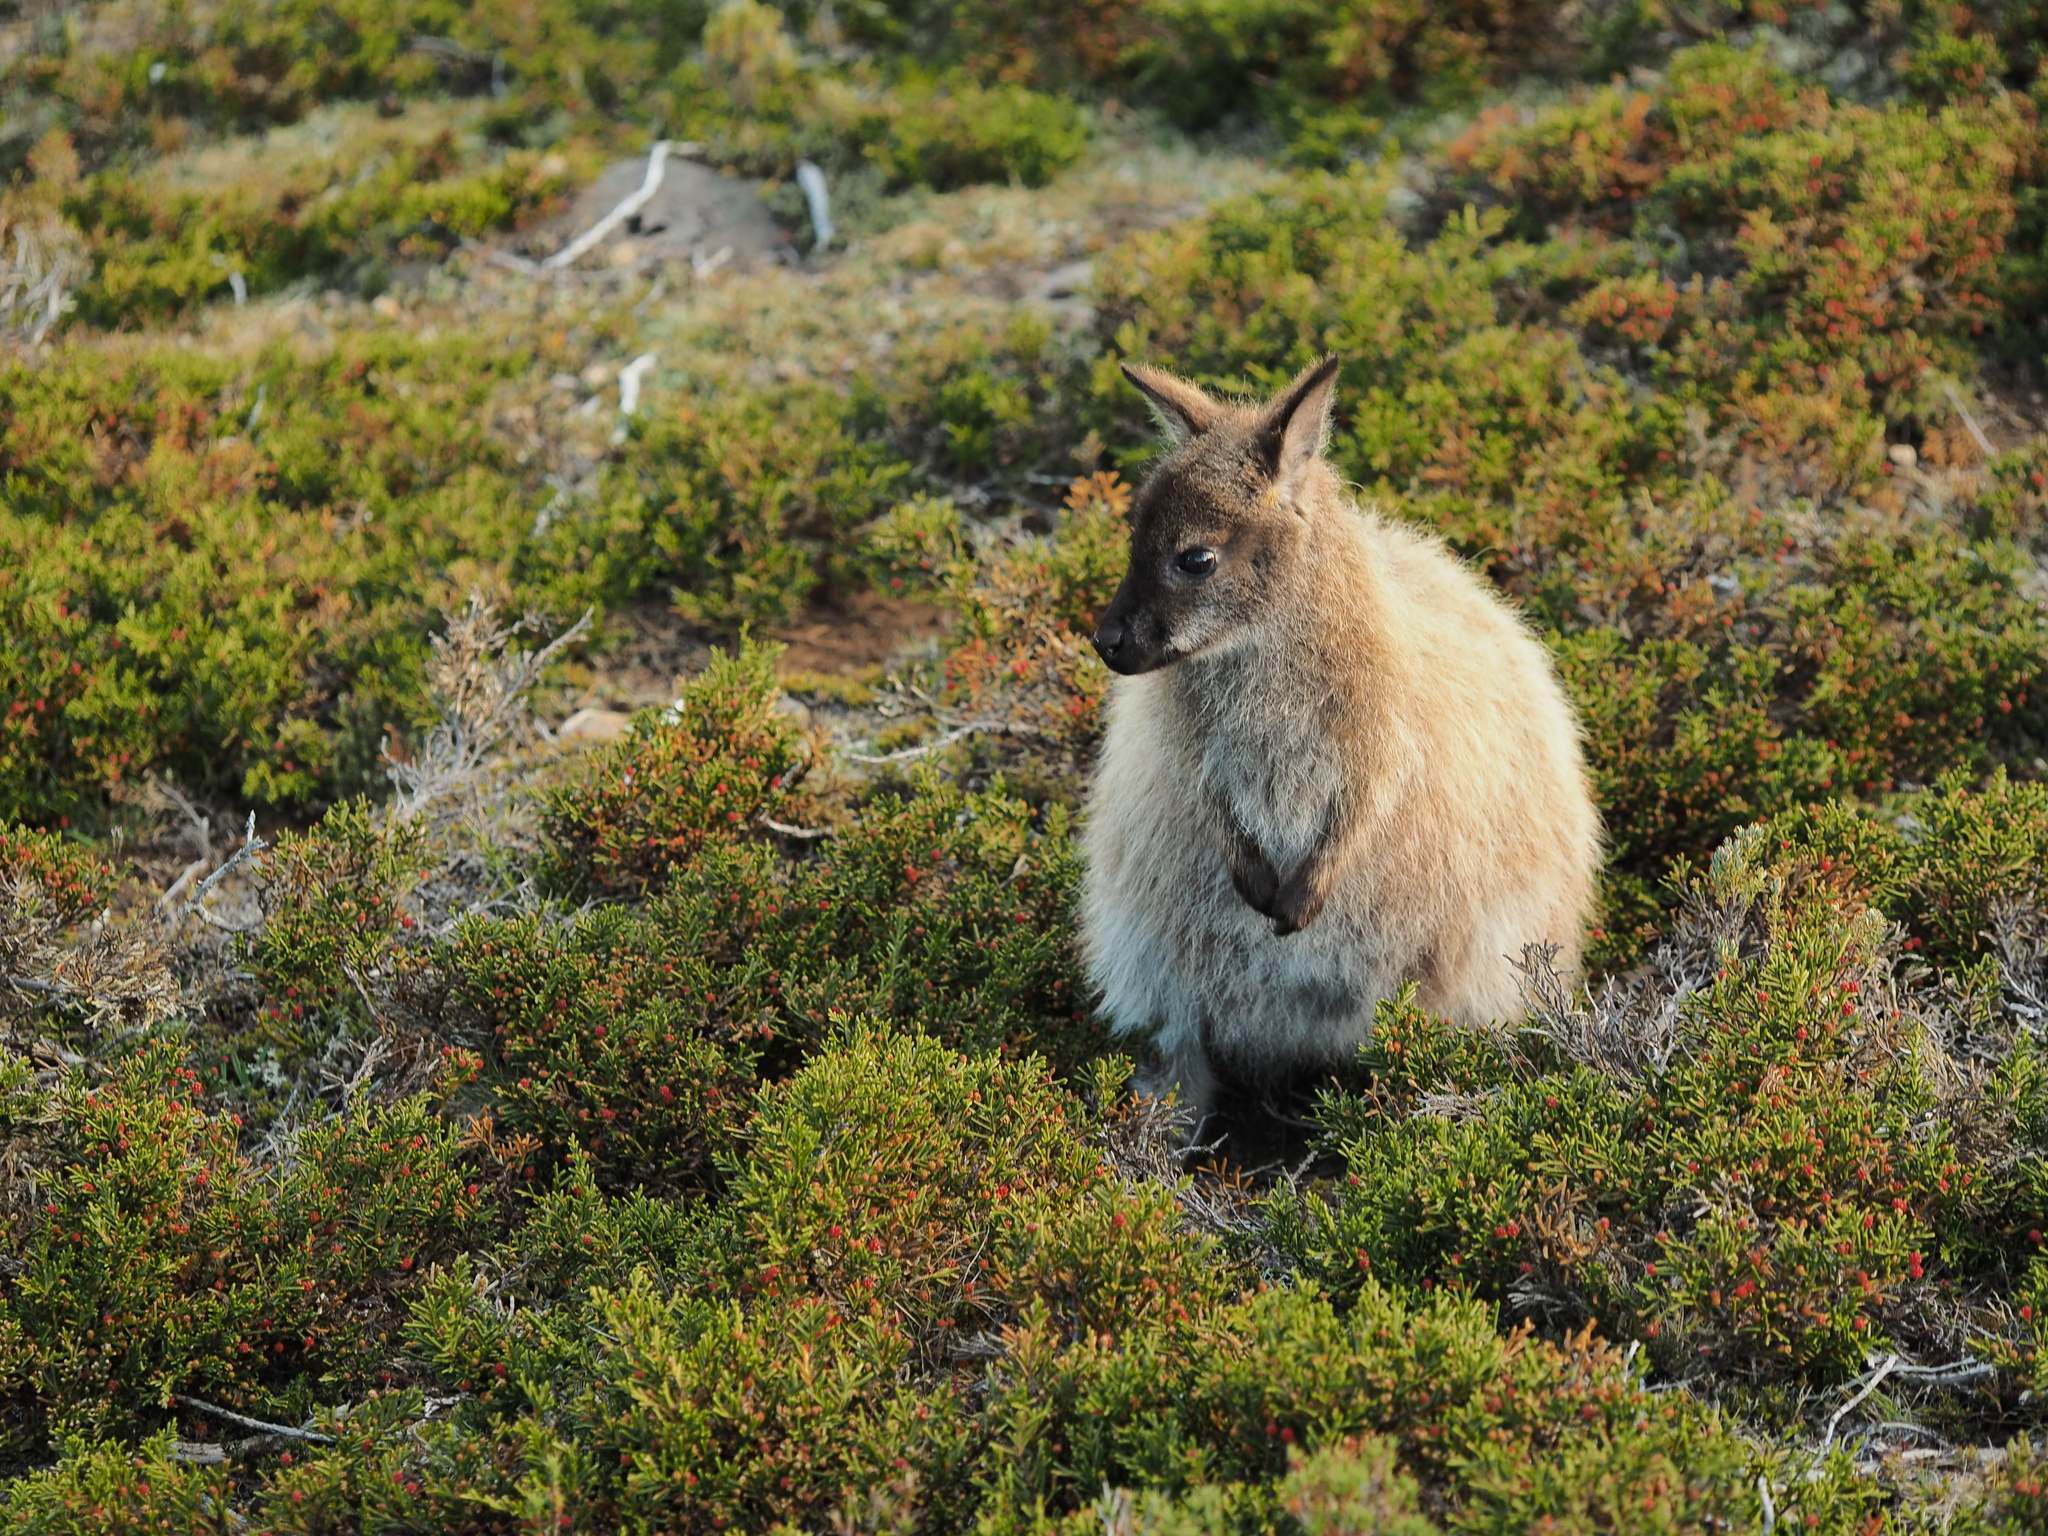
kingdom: Animalia
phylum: Chordata
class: Mammalia
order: Diprotodontia
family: Macropodidae
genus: Notamacropus
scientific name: Notamacropus rufogriseus
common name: Red-necked wallaby
